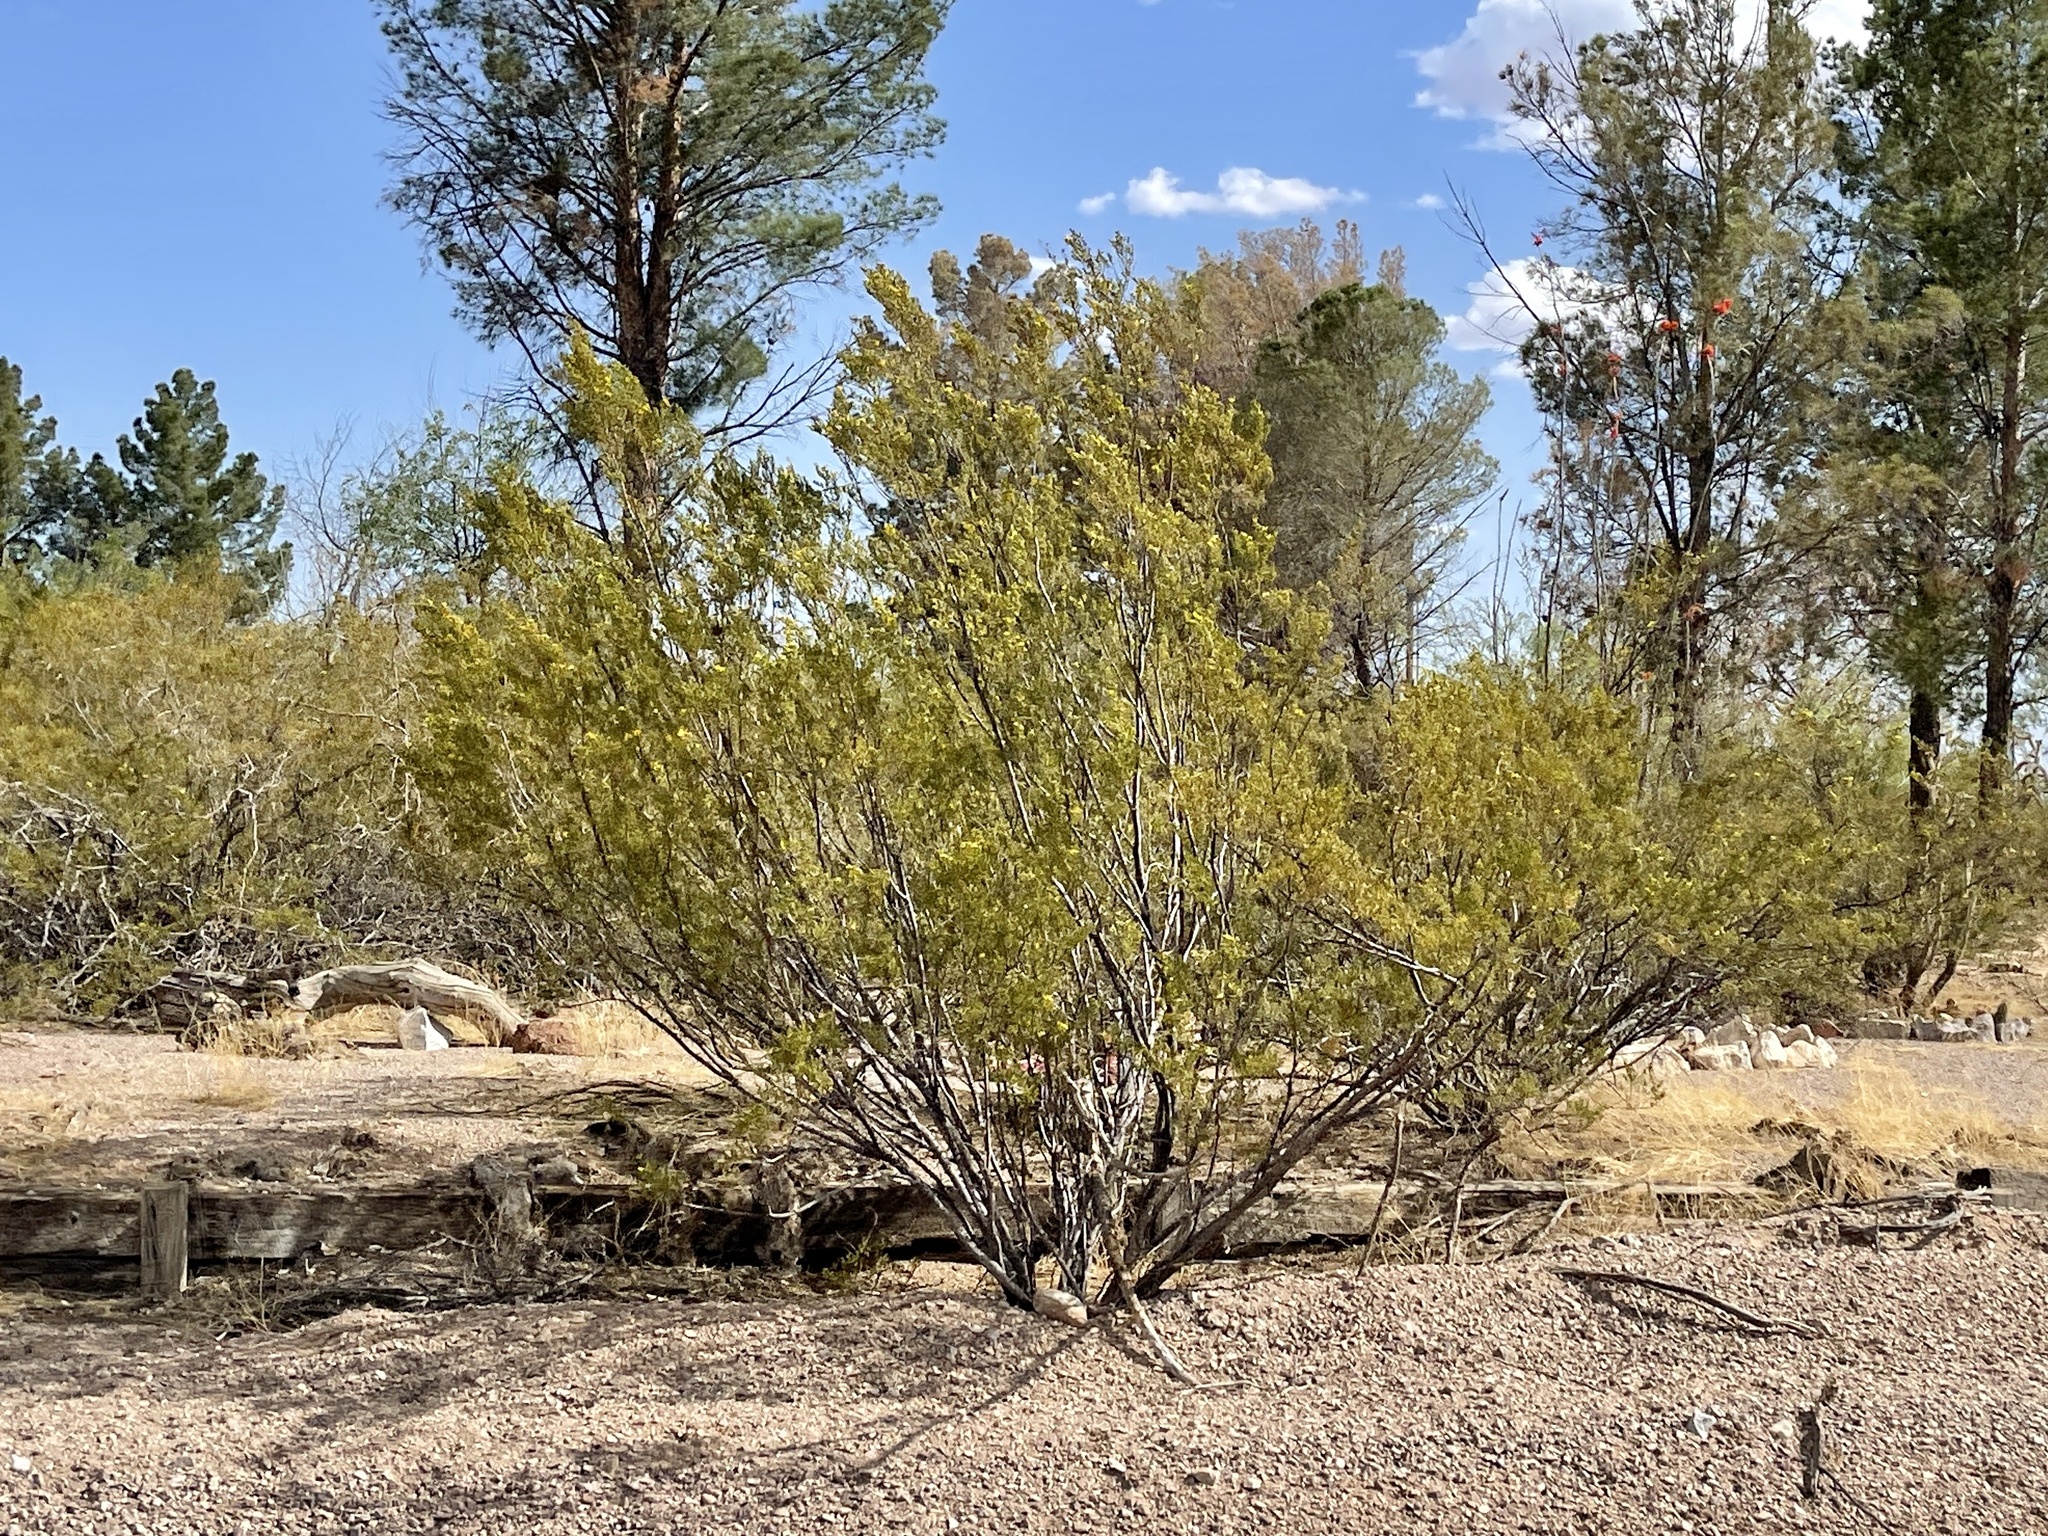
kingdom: Plantae
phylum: Tracheophyta
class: Magnoliopsida
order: Zygophyllales
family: Zygophyllaceae
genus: Larrea
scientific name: Larrea tridentata
